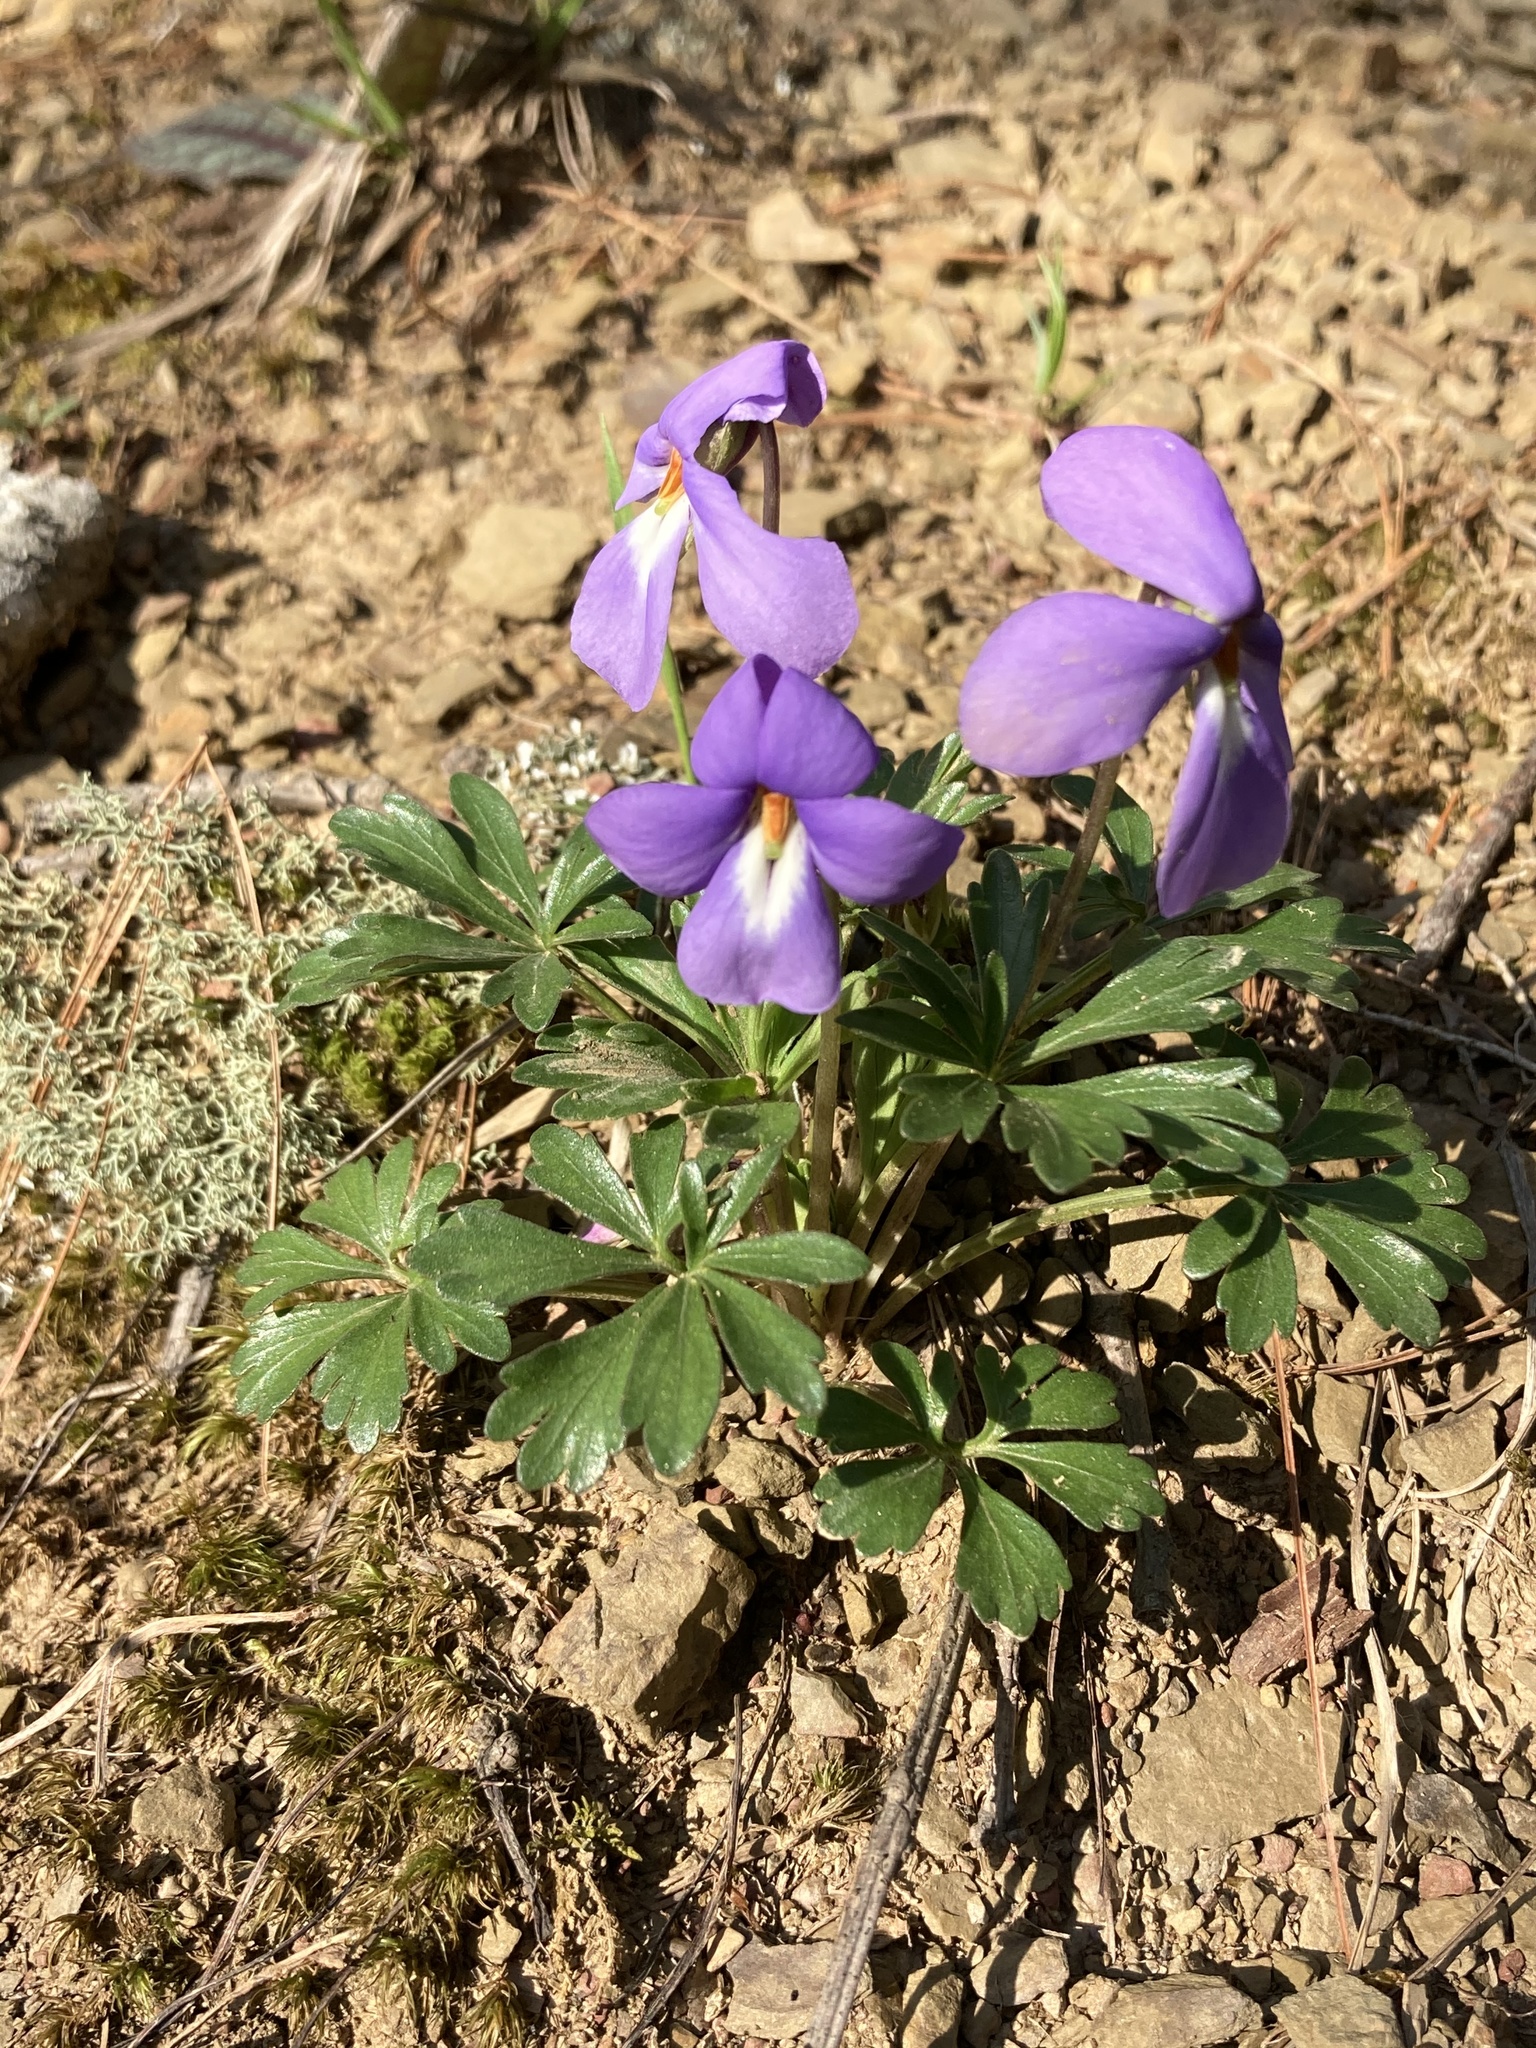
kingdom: Plantae
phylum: Tracheophyta
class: Magnoliopsida
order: Malpighiales
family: Violaceae
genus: Viola
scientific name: Viola pedata
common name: Pansy violet
